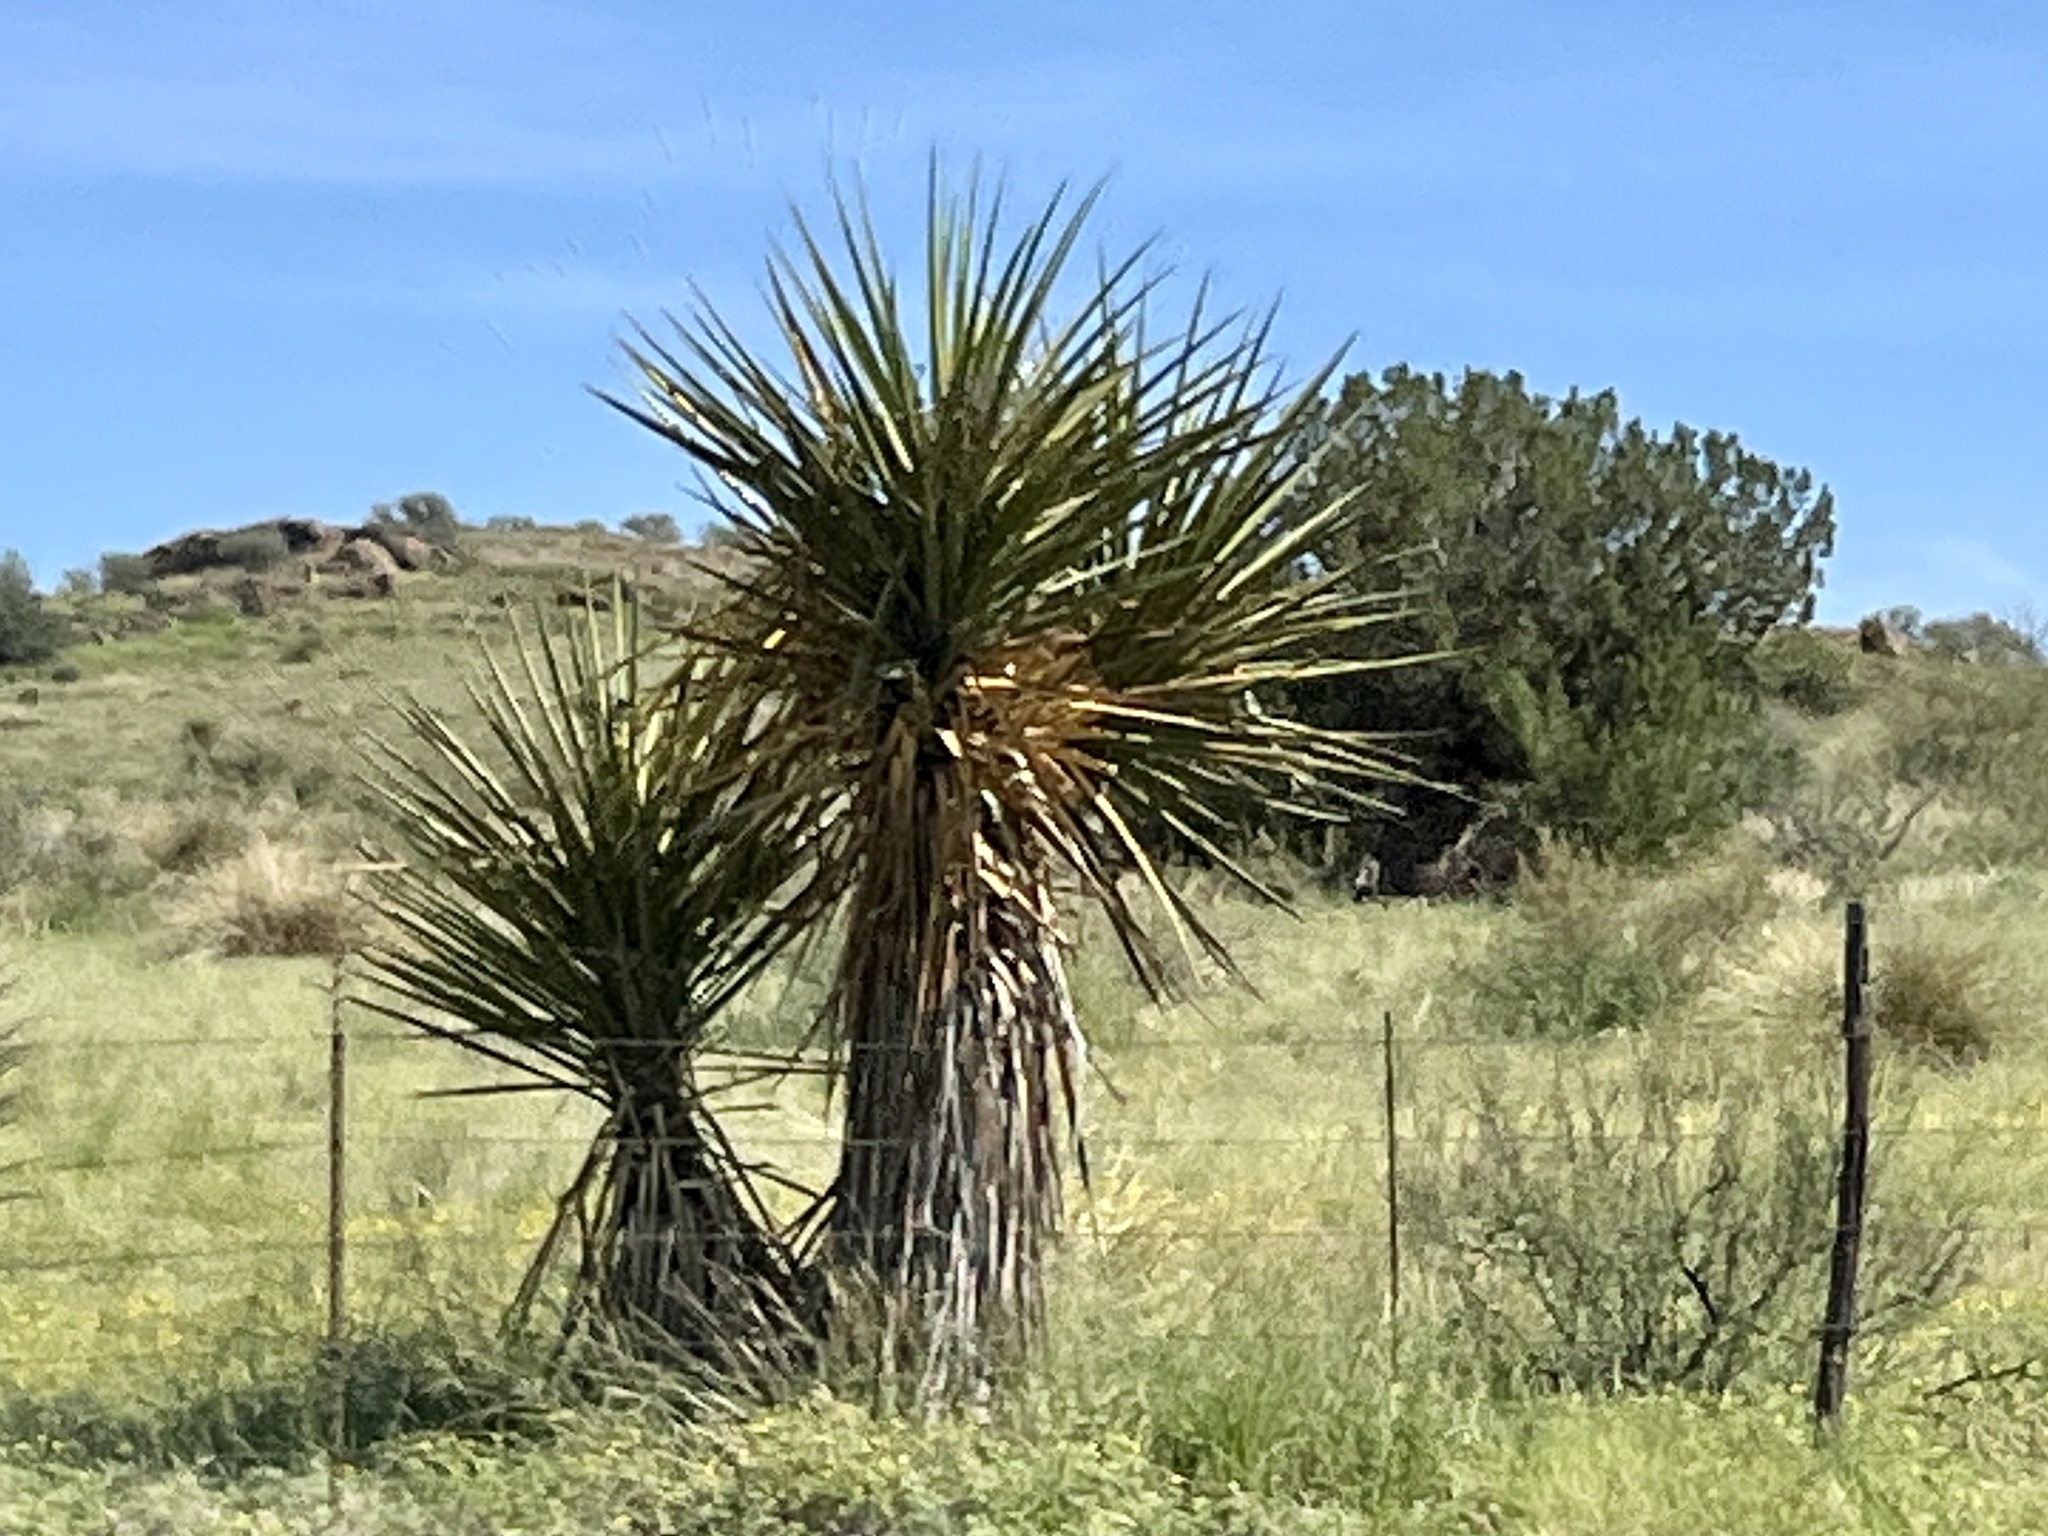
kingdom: Plantae
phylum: Tracheophyta
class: Liliopsida
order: Asparagales
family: Asparagaceae
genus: Yucca
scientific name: Yucca treculiana
